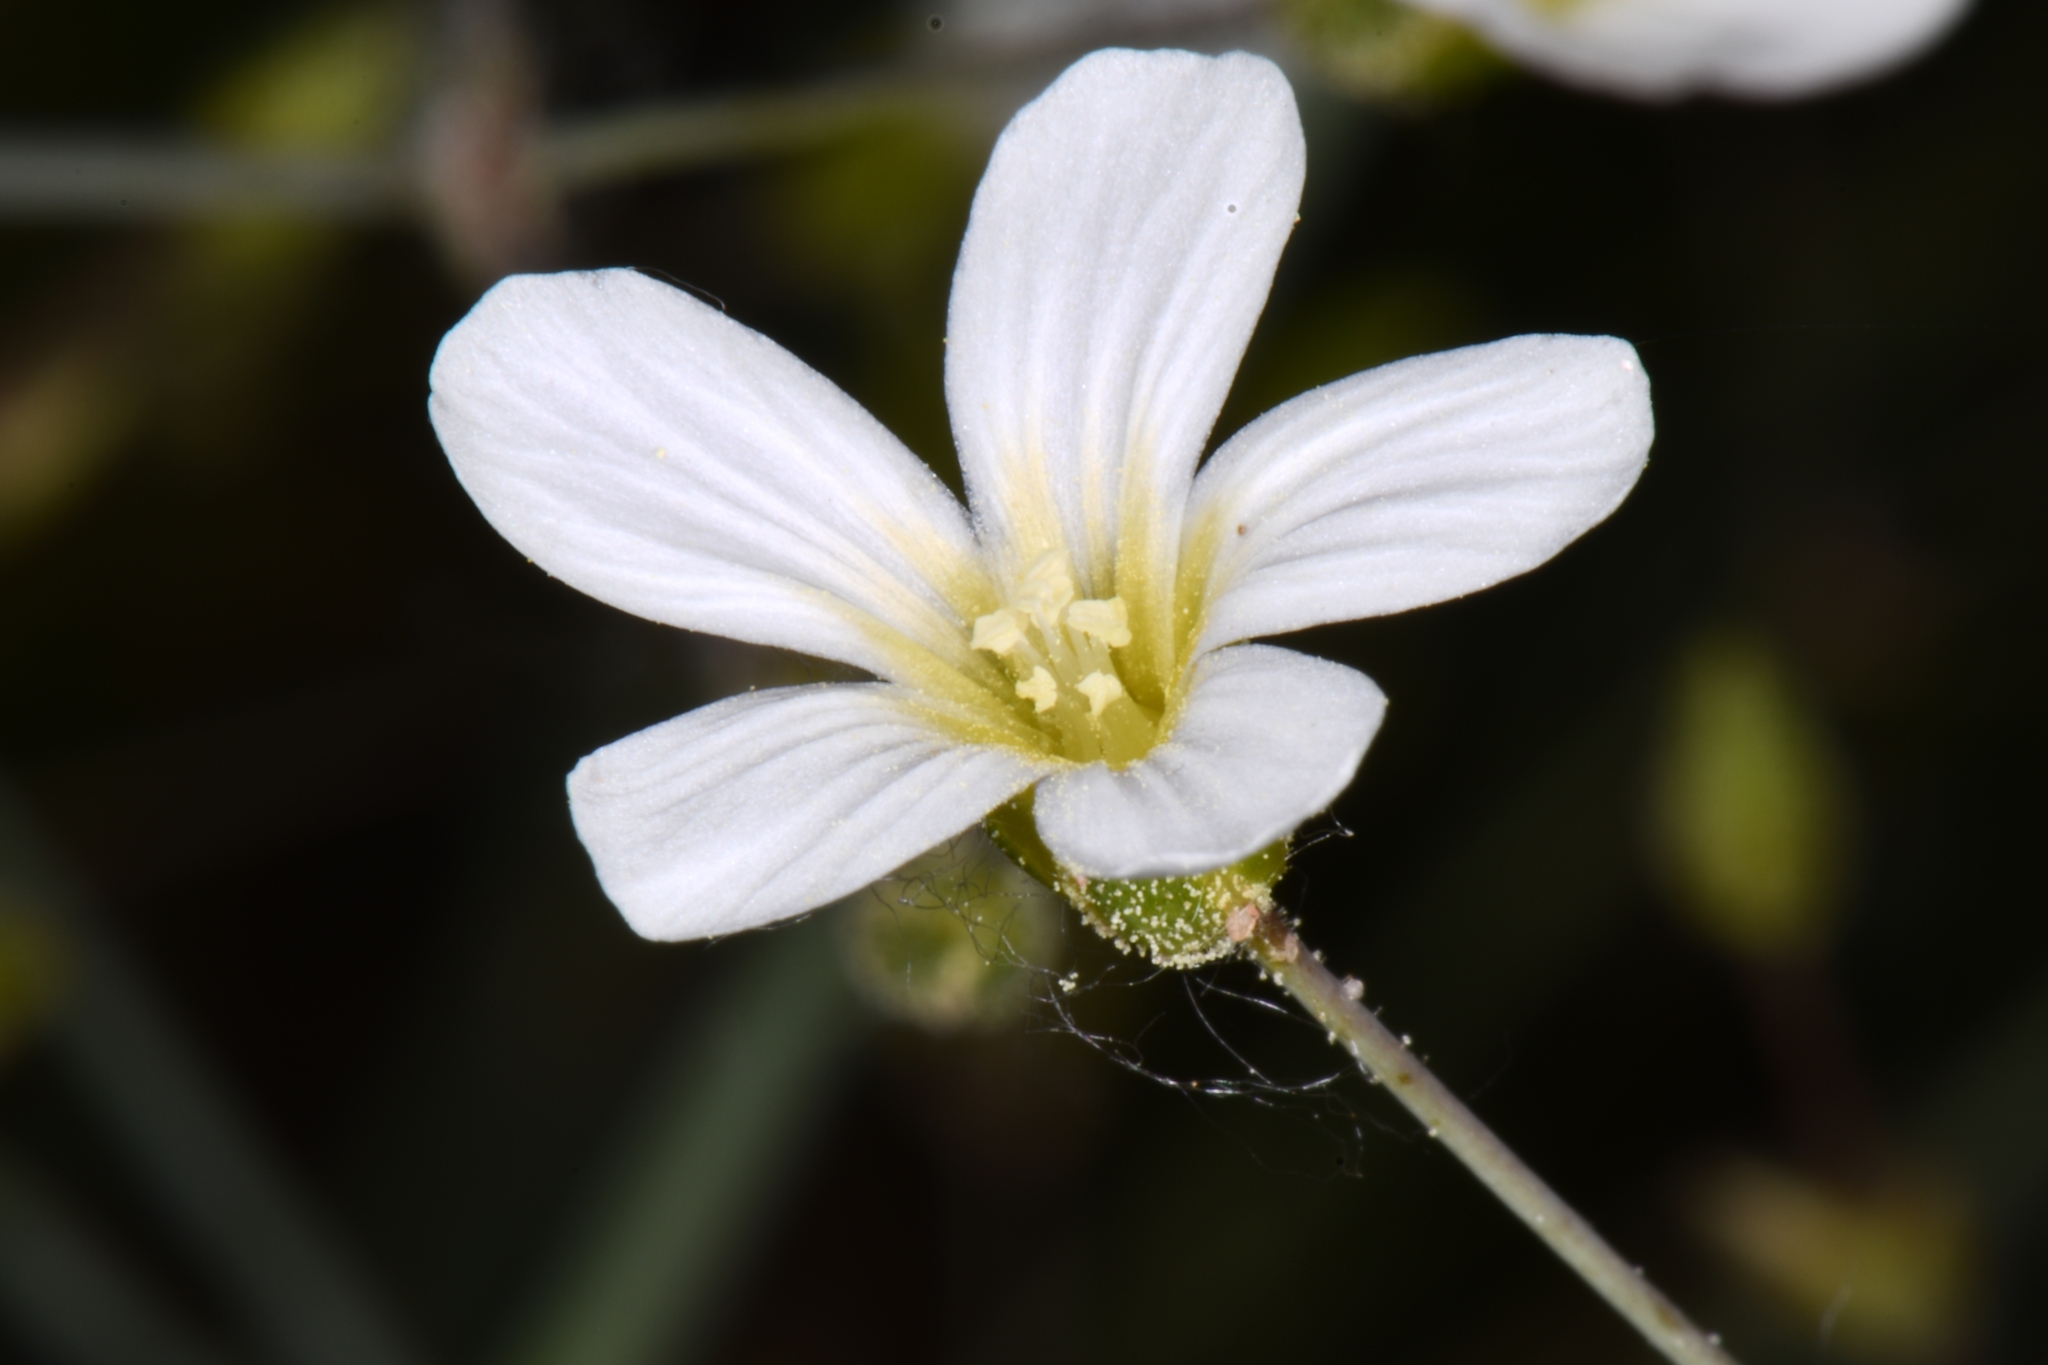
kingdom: Plantae
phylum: Tracheophyta
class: Magnoliopsida
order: Caryophyllales
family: Caryophyllaceae
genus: Eremogone
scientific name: Eremogone kingii
